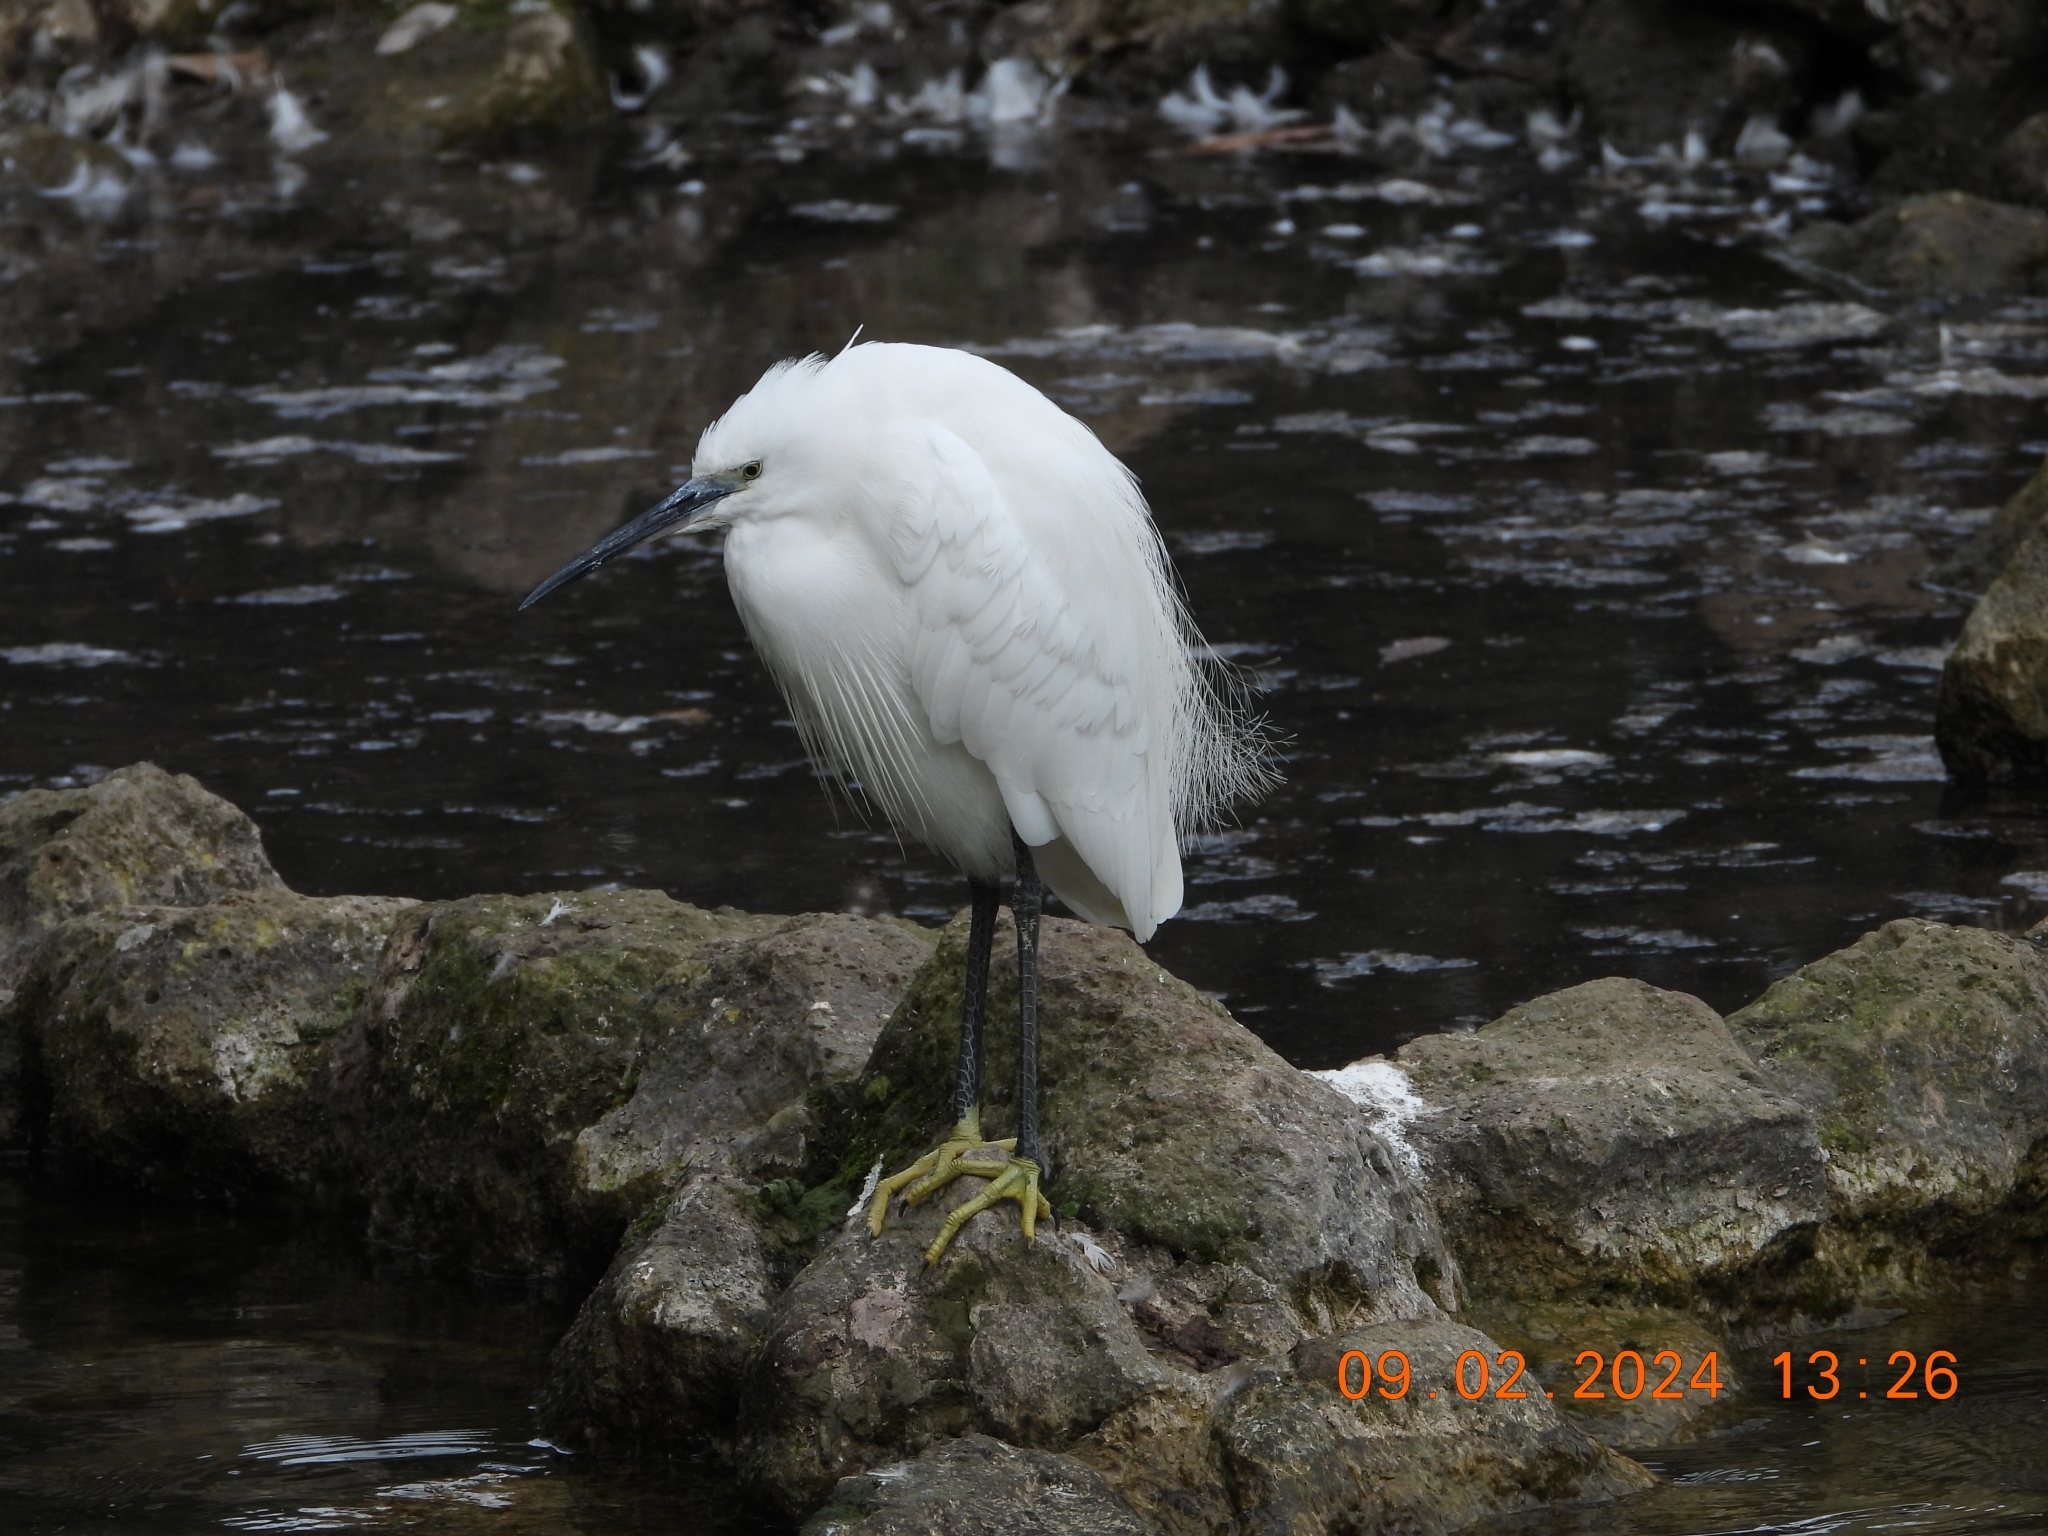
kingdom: Animalia
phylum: Chordata
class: Aves
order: Pelecaniformes
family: Ardeidae
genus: Egretta
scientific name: Egretta garzetta
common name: Little egret
